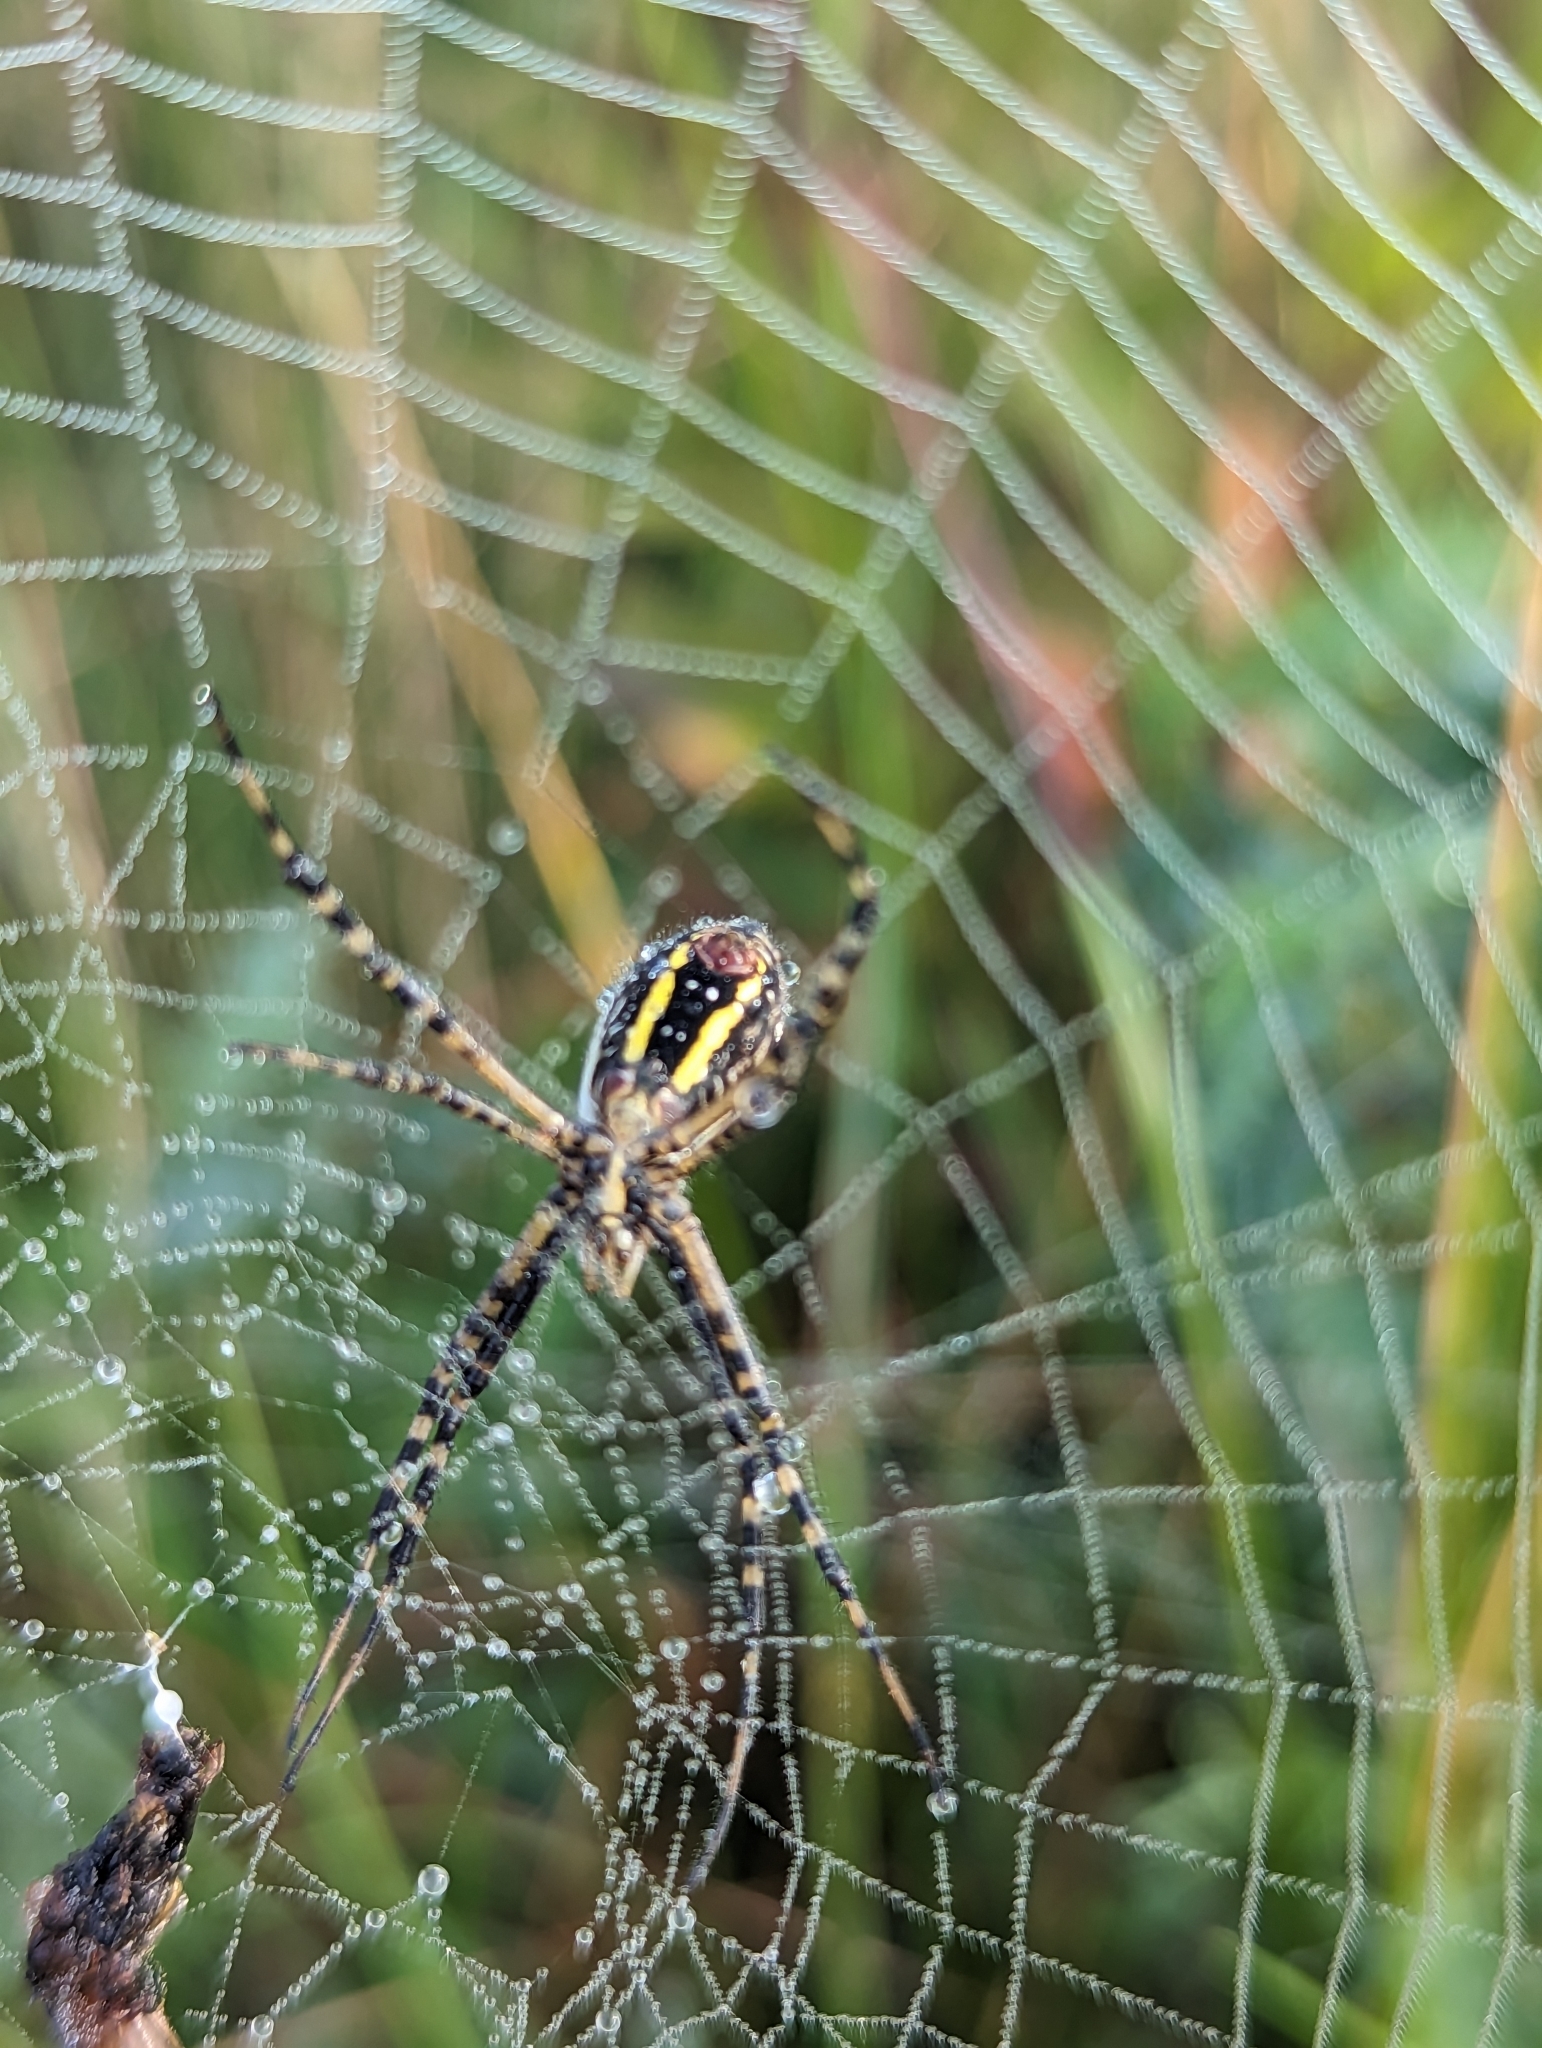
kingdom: Animalia
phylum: Arthropoda
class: Arachnida
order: Araneae
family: Araneidae
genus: Argiope
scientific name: Argiope trifasciata
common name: Banded garden spider
